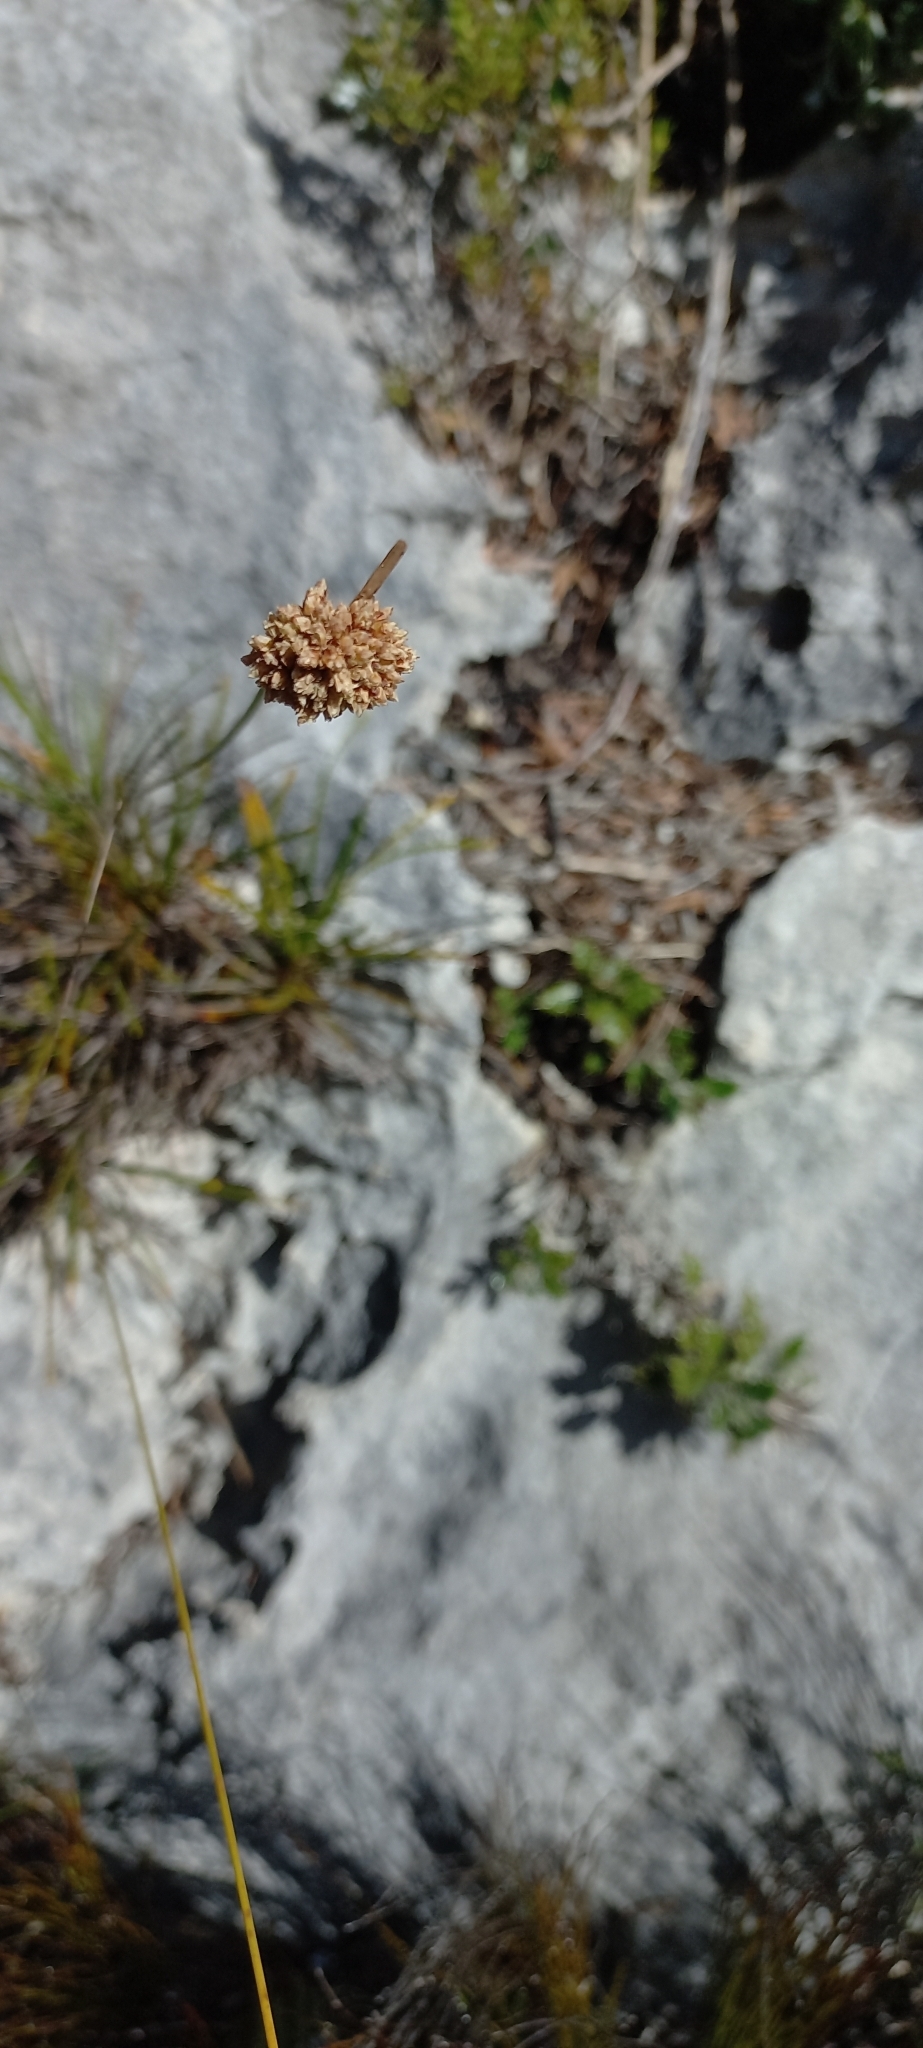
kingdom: Plantae
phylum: Tracheophyta
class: Liliopsida
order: Poales
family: Cyperaceae
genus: Ficinia
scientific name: Ficinia praemorsa
